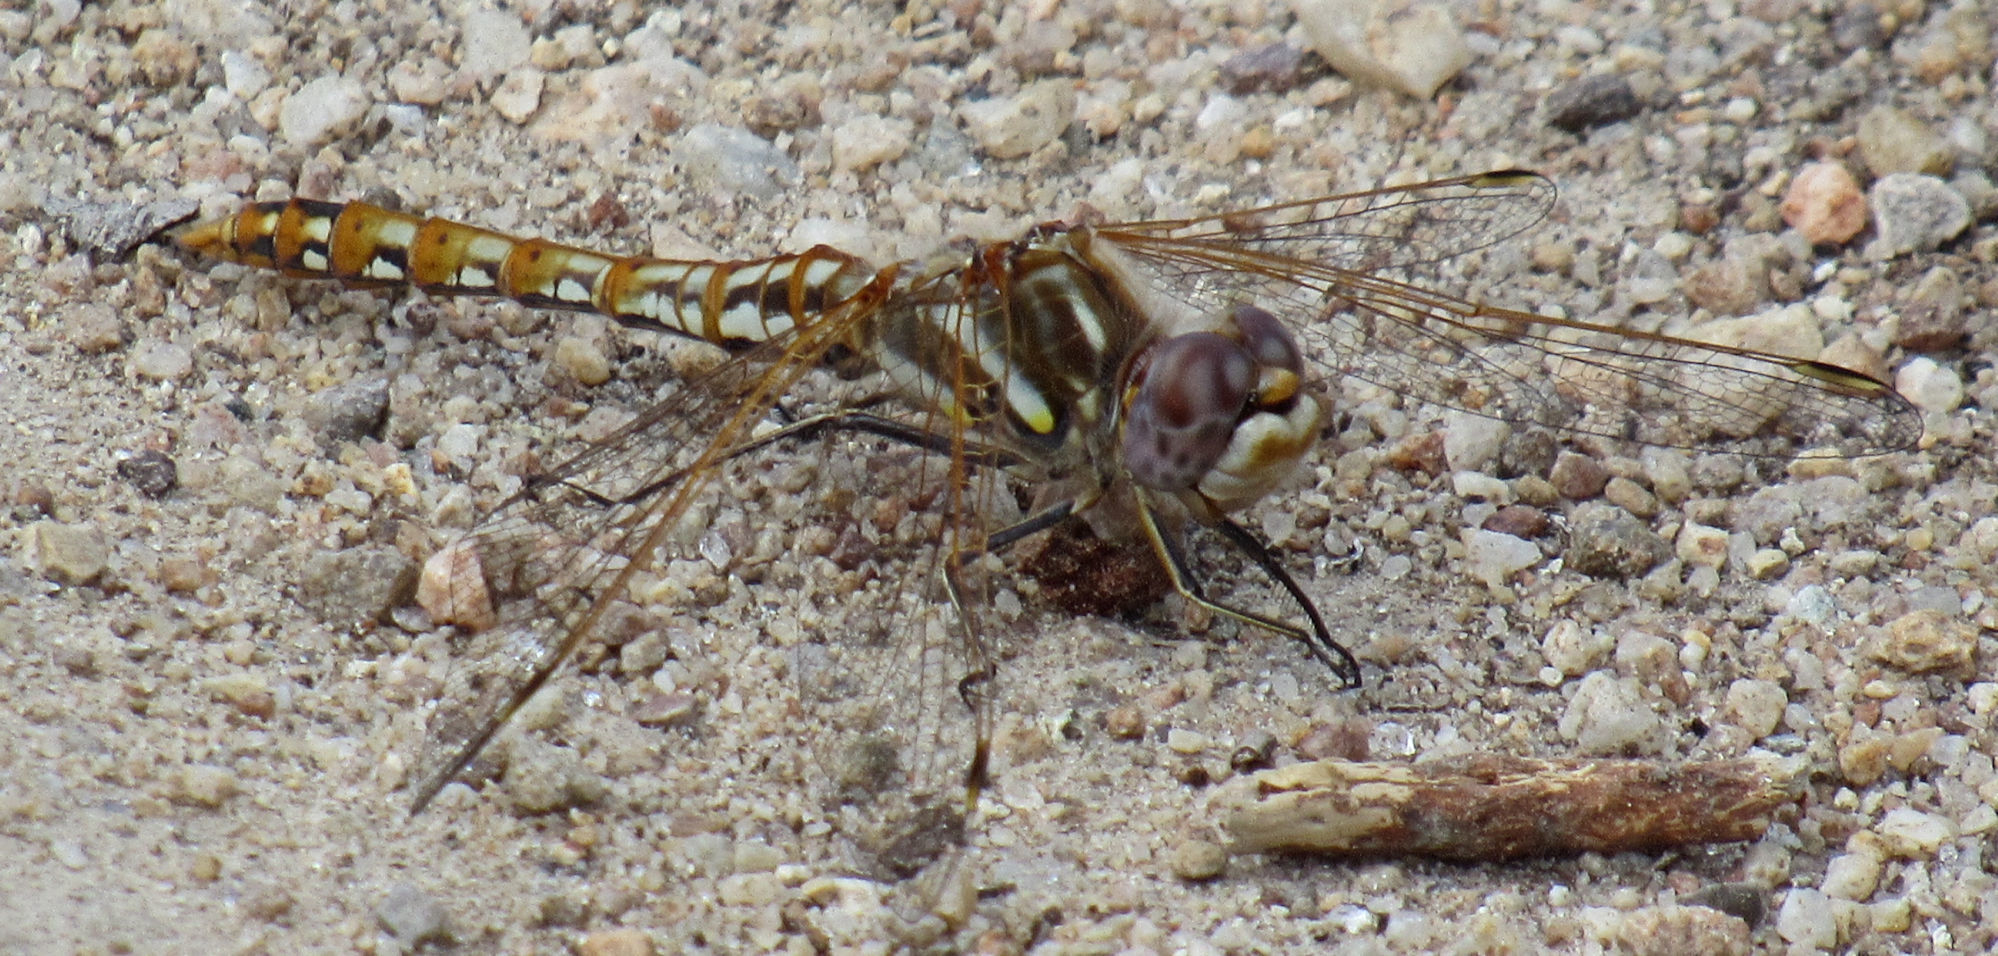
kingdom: Animalia
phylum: Arthropoda
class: Insecta
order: Odonata
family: Libellulidae
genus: Sympetrum
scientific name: Sympetrum corruptum
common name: Variegated meadowhawk
